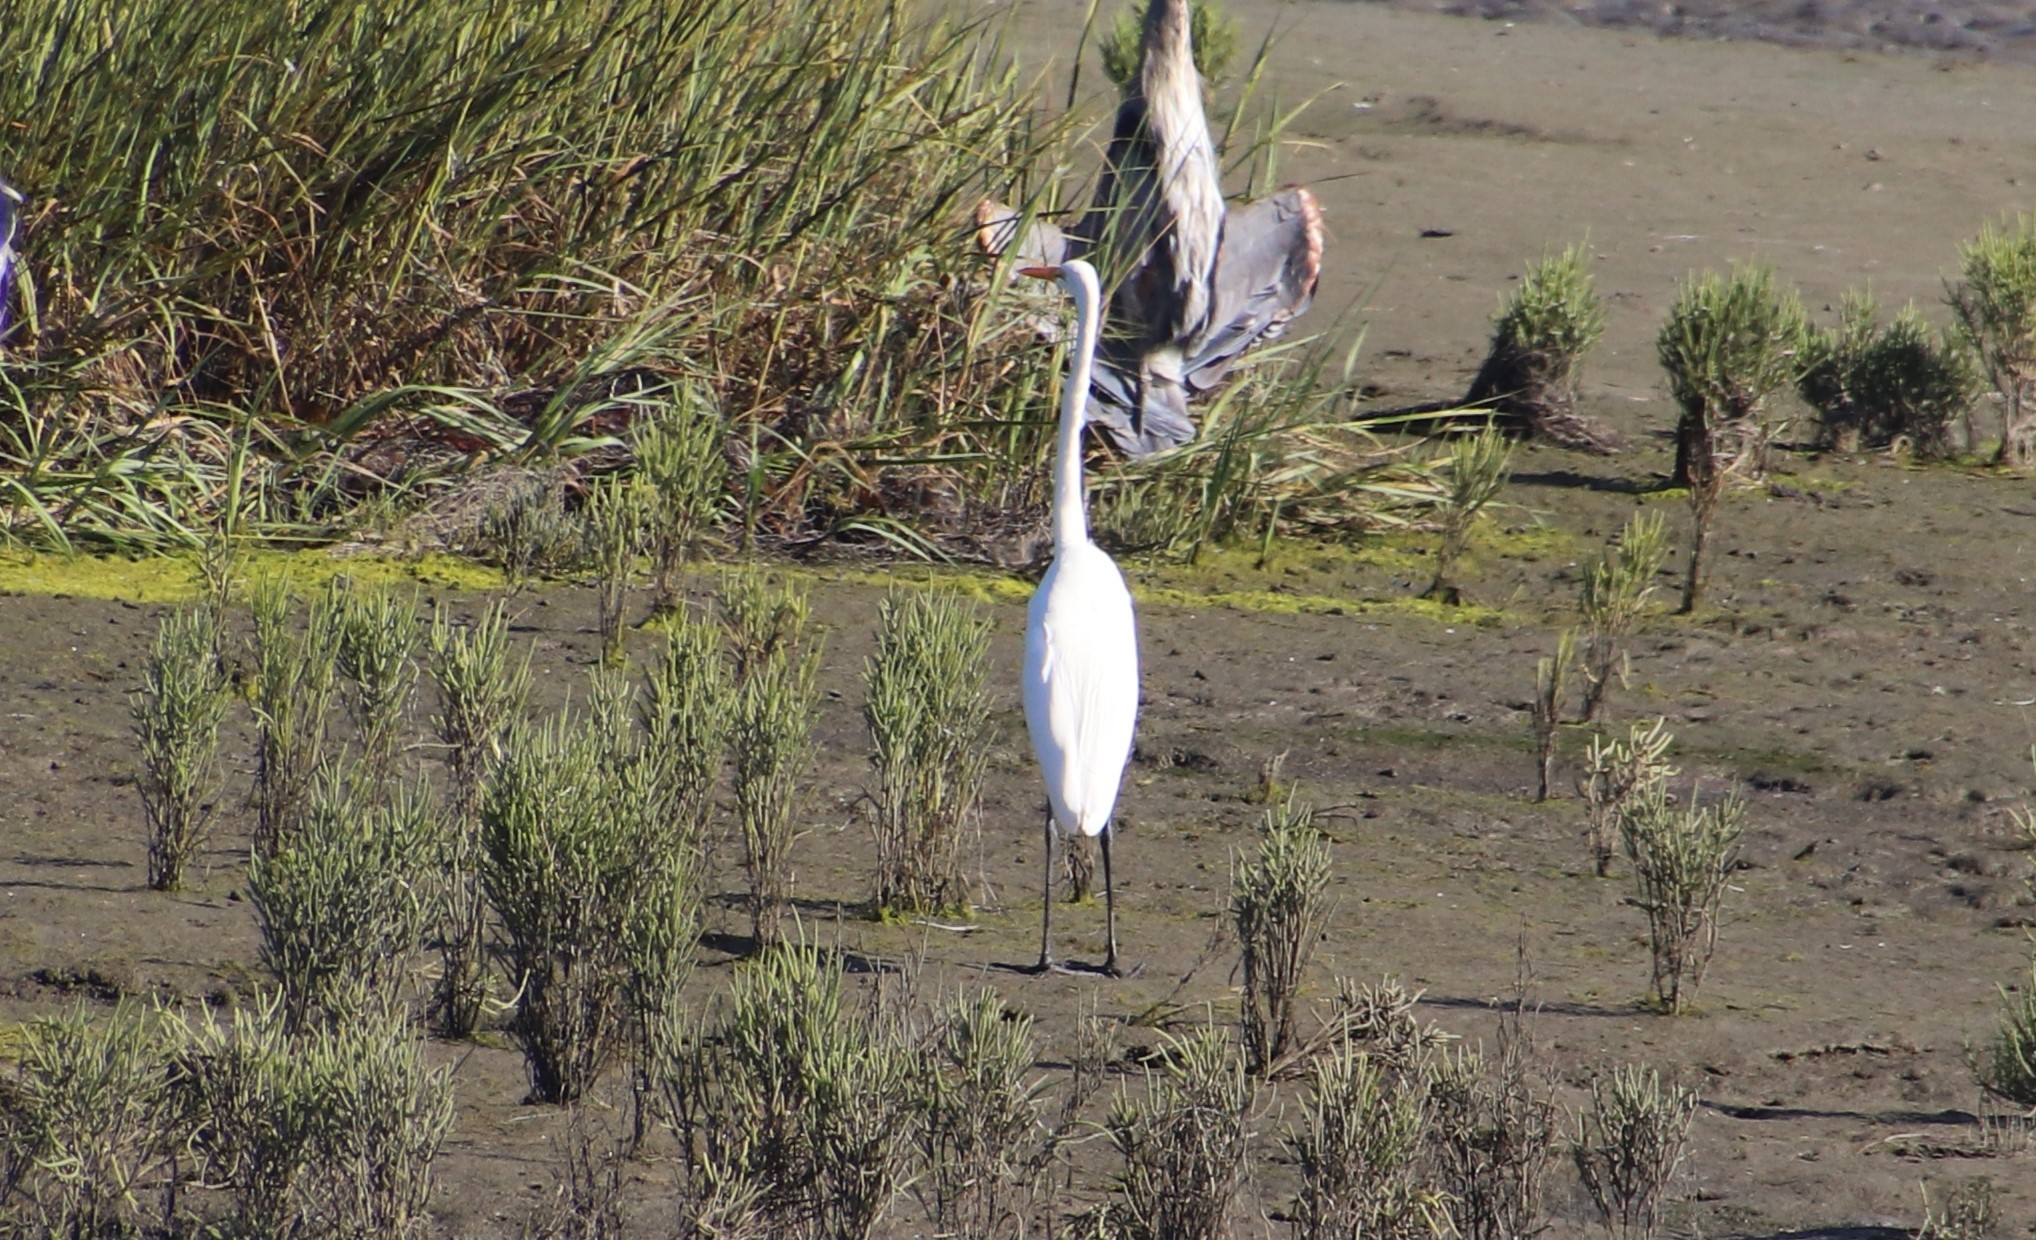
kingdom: Animalia
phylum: Chordata
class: Aves
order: Pelecaniformes
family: Ardeidae
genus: Ardea
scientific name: Ardea alba
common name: Great egret
